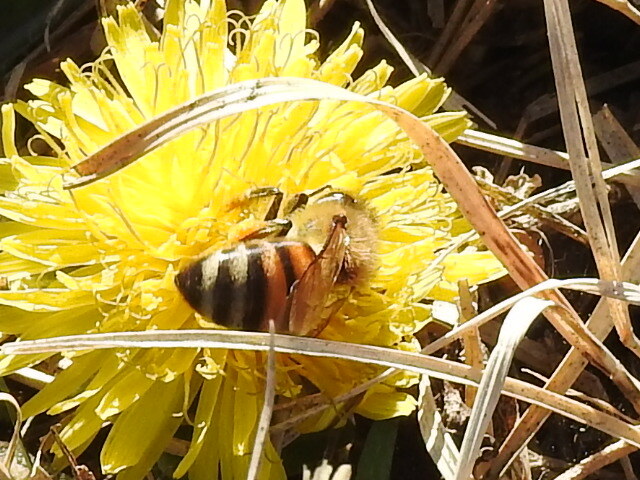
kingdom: Animalia
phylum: Arthropoda
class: Insecta
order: Hymenoptera
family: Apidae
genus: Apis
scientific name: Apis mellifera
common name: Honey bee
